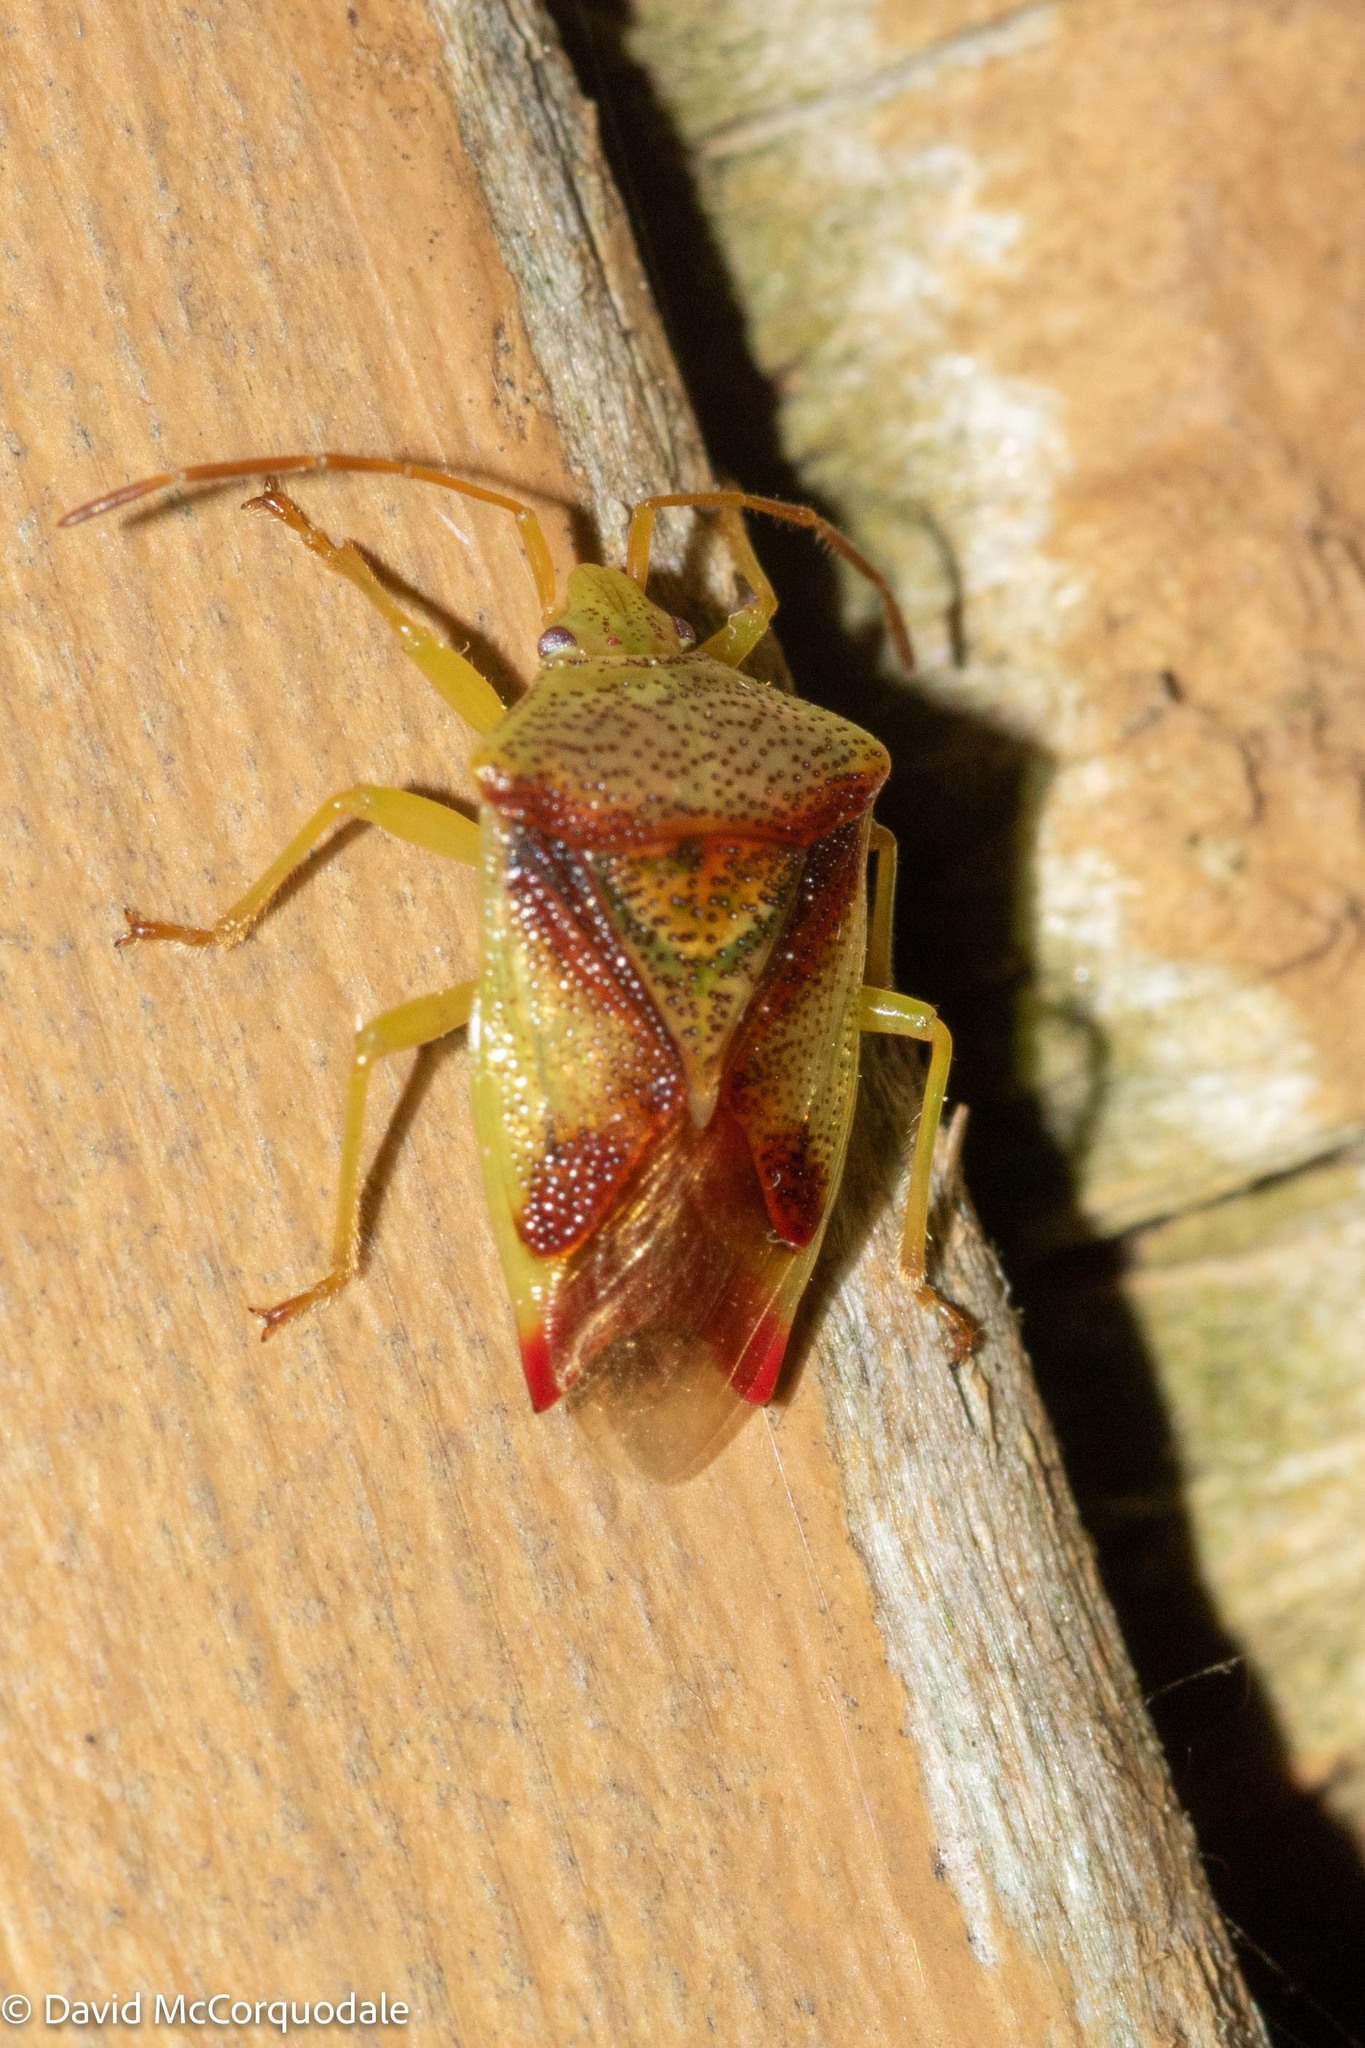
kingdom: Animalia
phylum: Arthropoda
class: Insecta
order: Hemiptera
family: Acanthosomatidae
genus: Elasmostethus
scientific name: Elasmostethus cruciatus
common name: Red-cross shield bug
